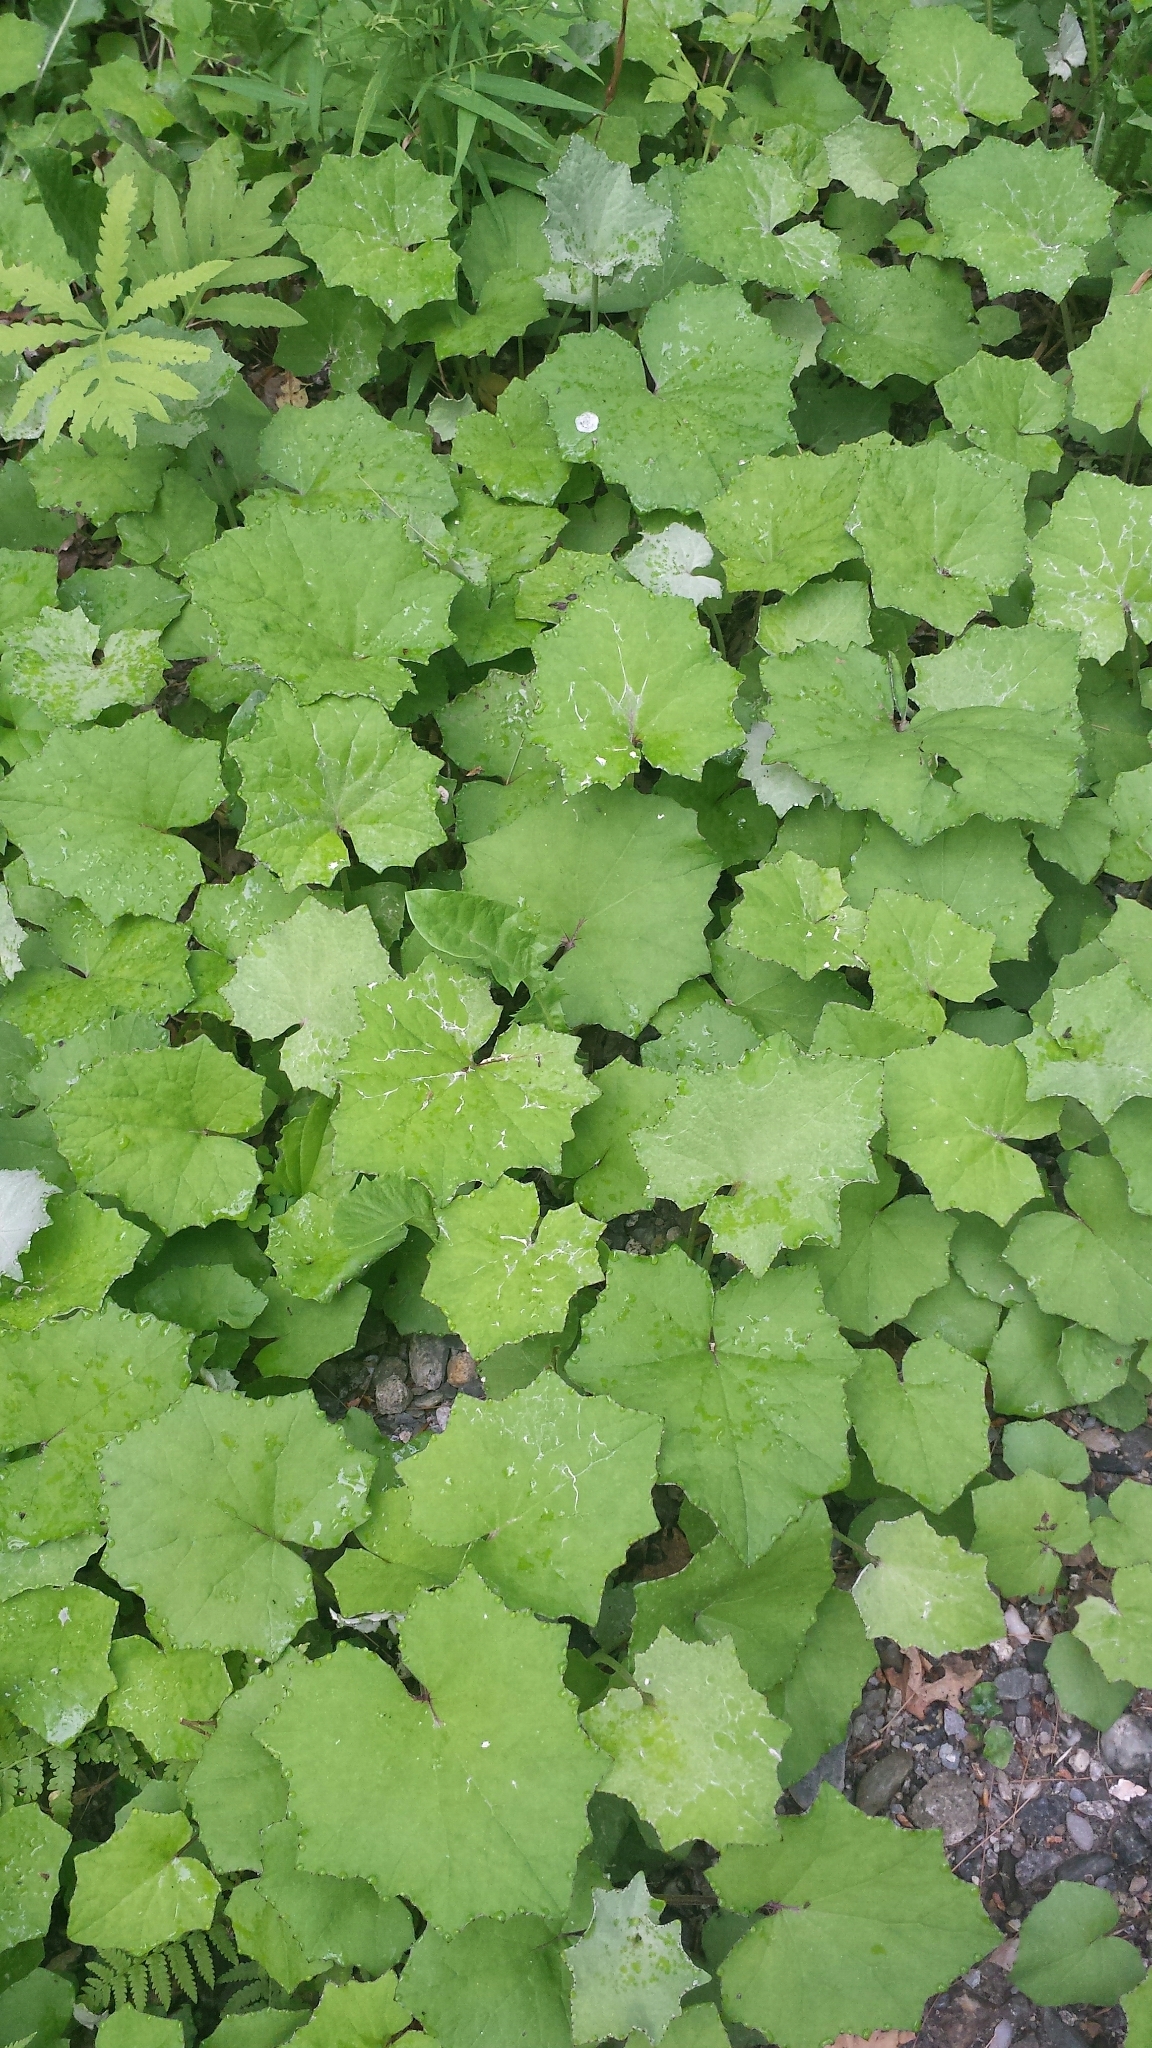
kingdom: Plantae
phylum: Tracheophyta
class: Magnoliopsida
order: Asterales
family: Asteraceae
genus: Tussilago
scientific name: Tussilago farfara
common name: Coltsfoot
